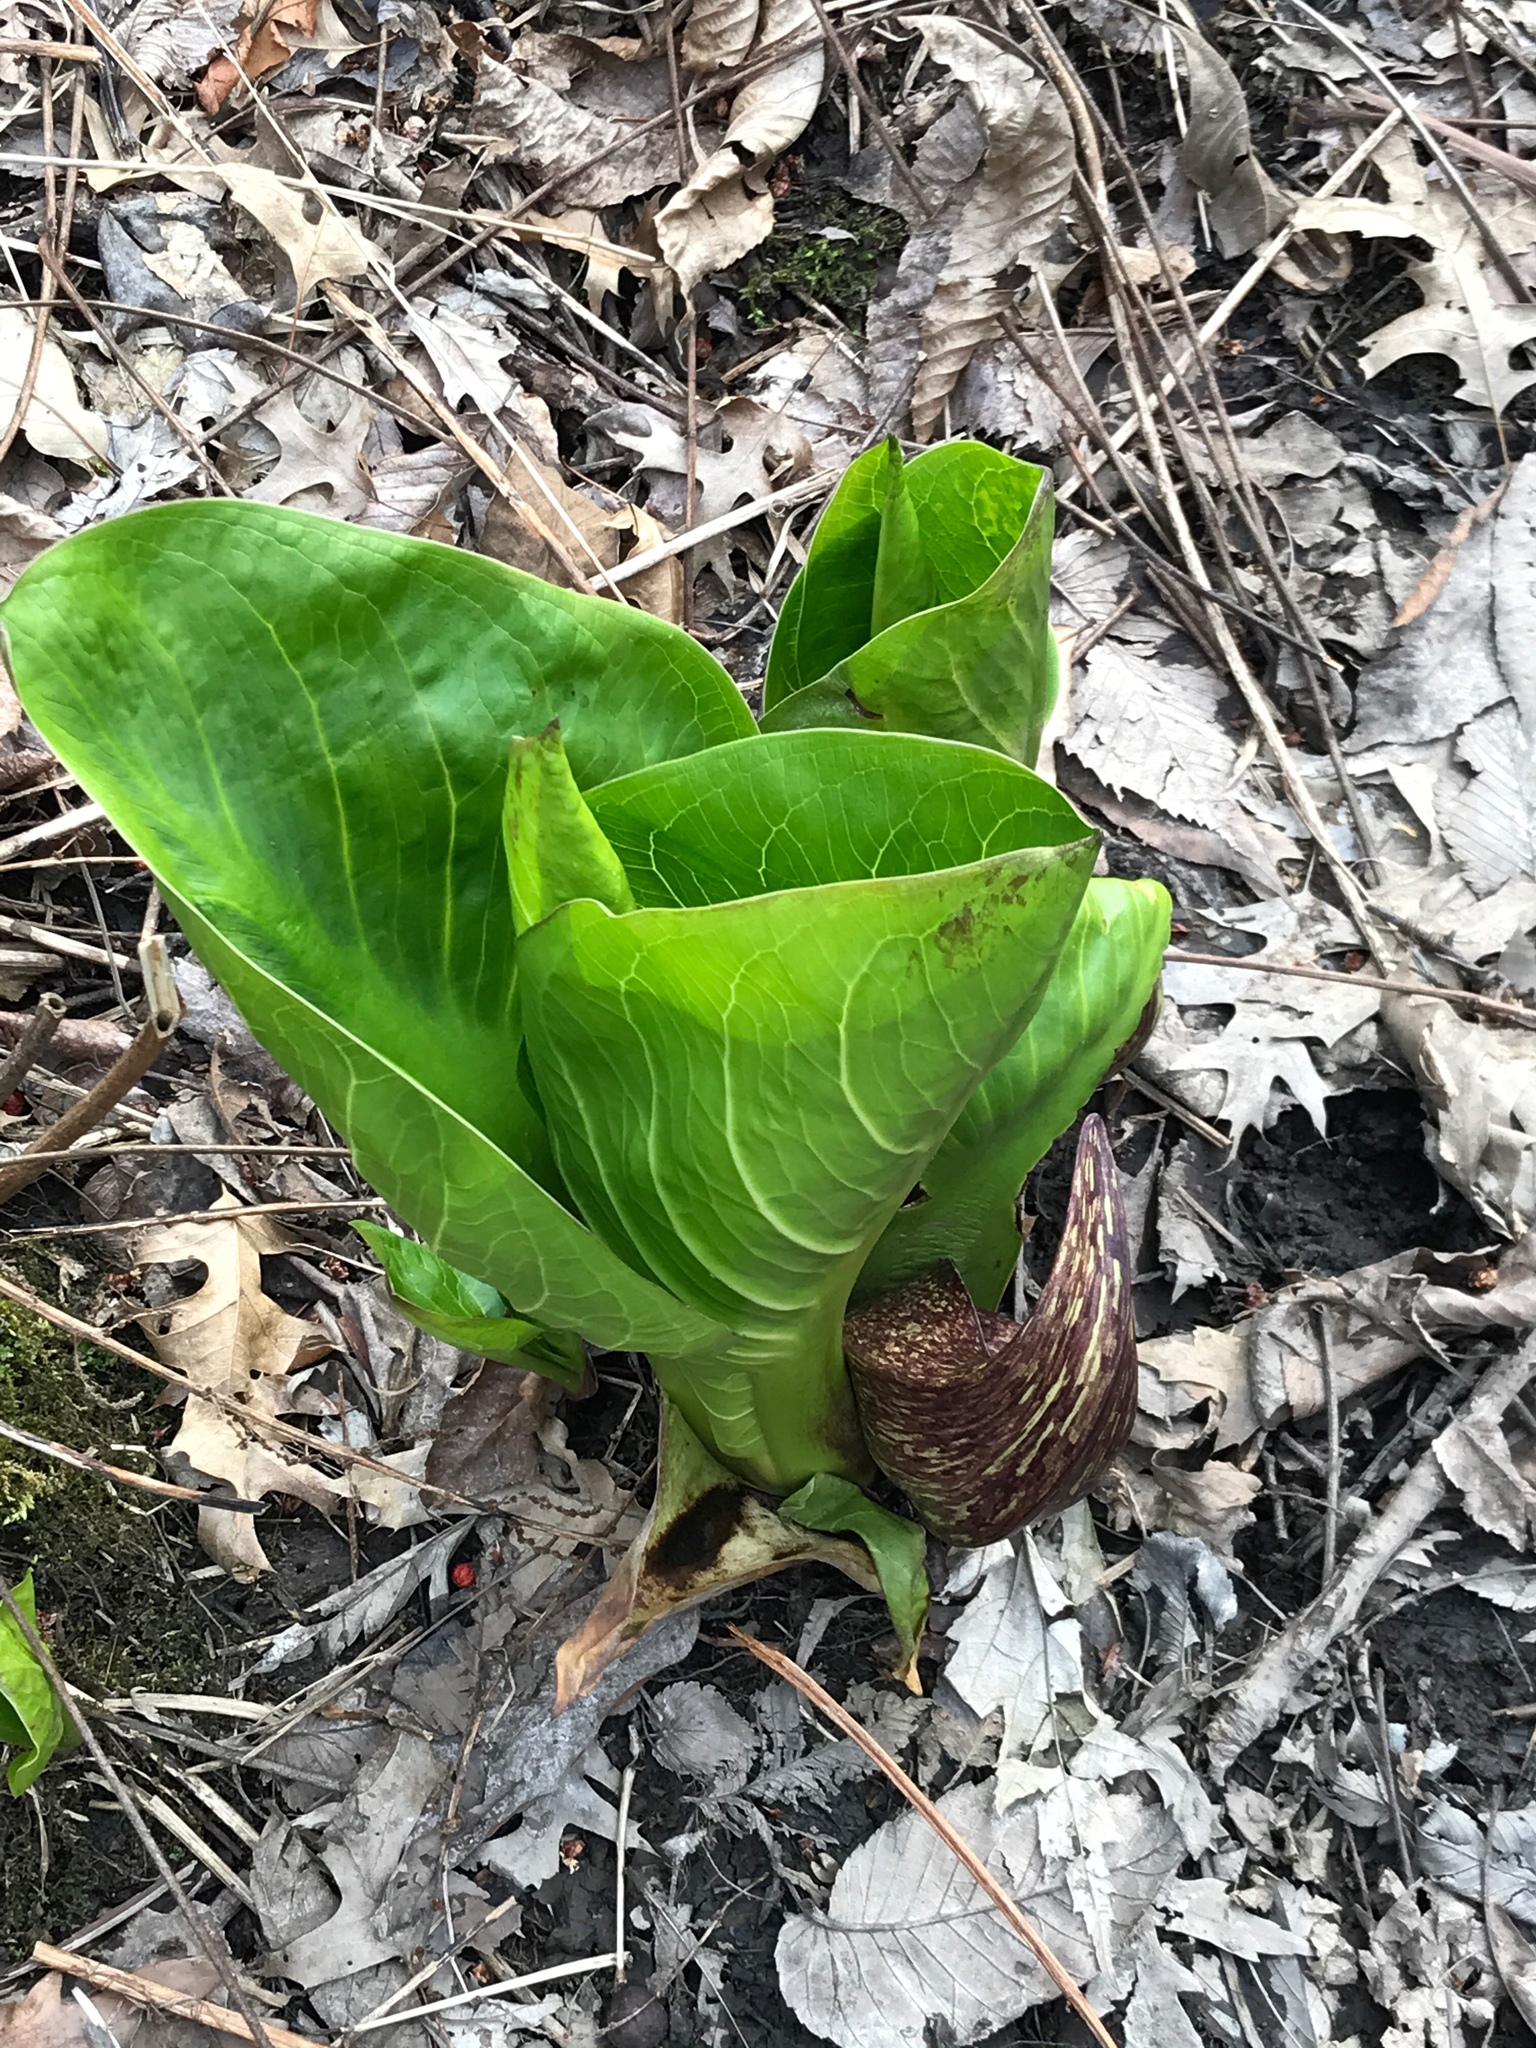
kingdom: Plantae
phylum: Tracheophyta
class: Liliopsida
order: Alismatales
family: Araceae
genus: Symplocarpus
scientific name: Symplocarpus foetidus
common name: Eastern skunk cabbage
